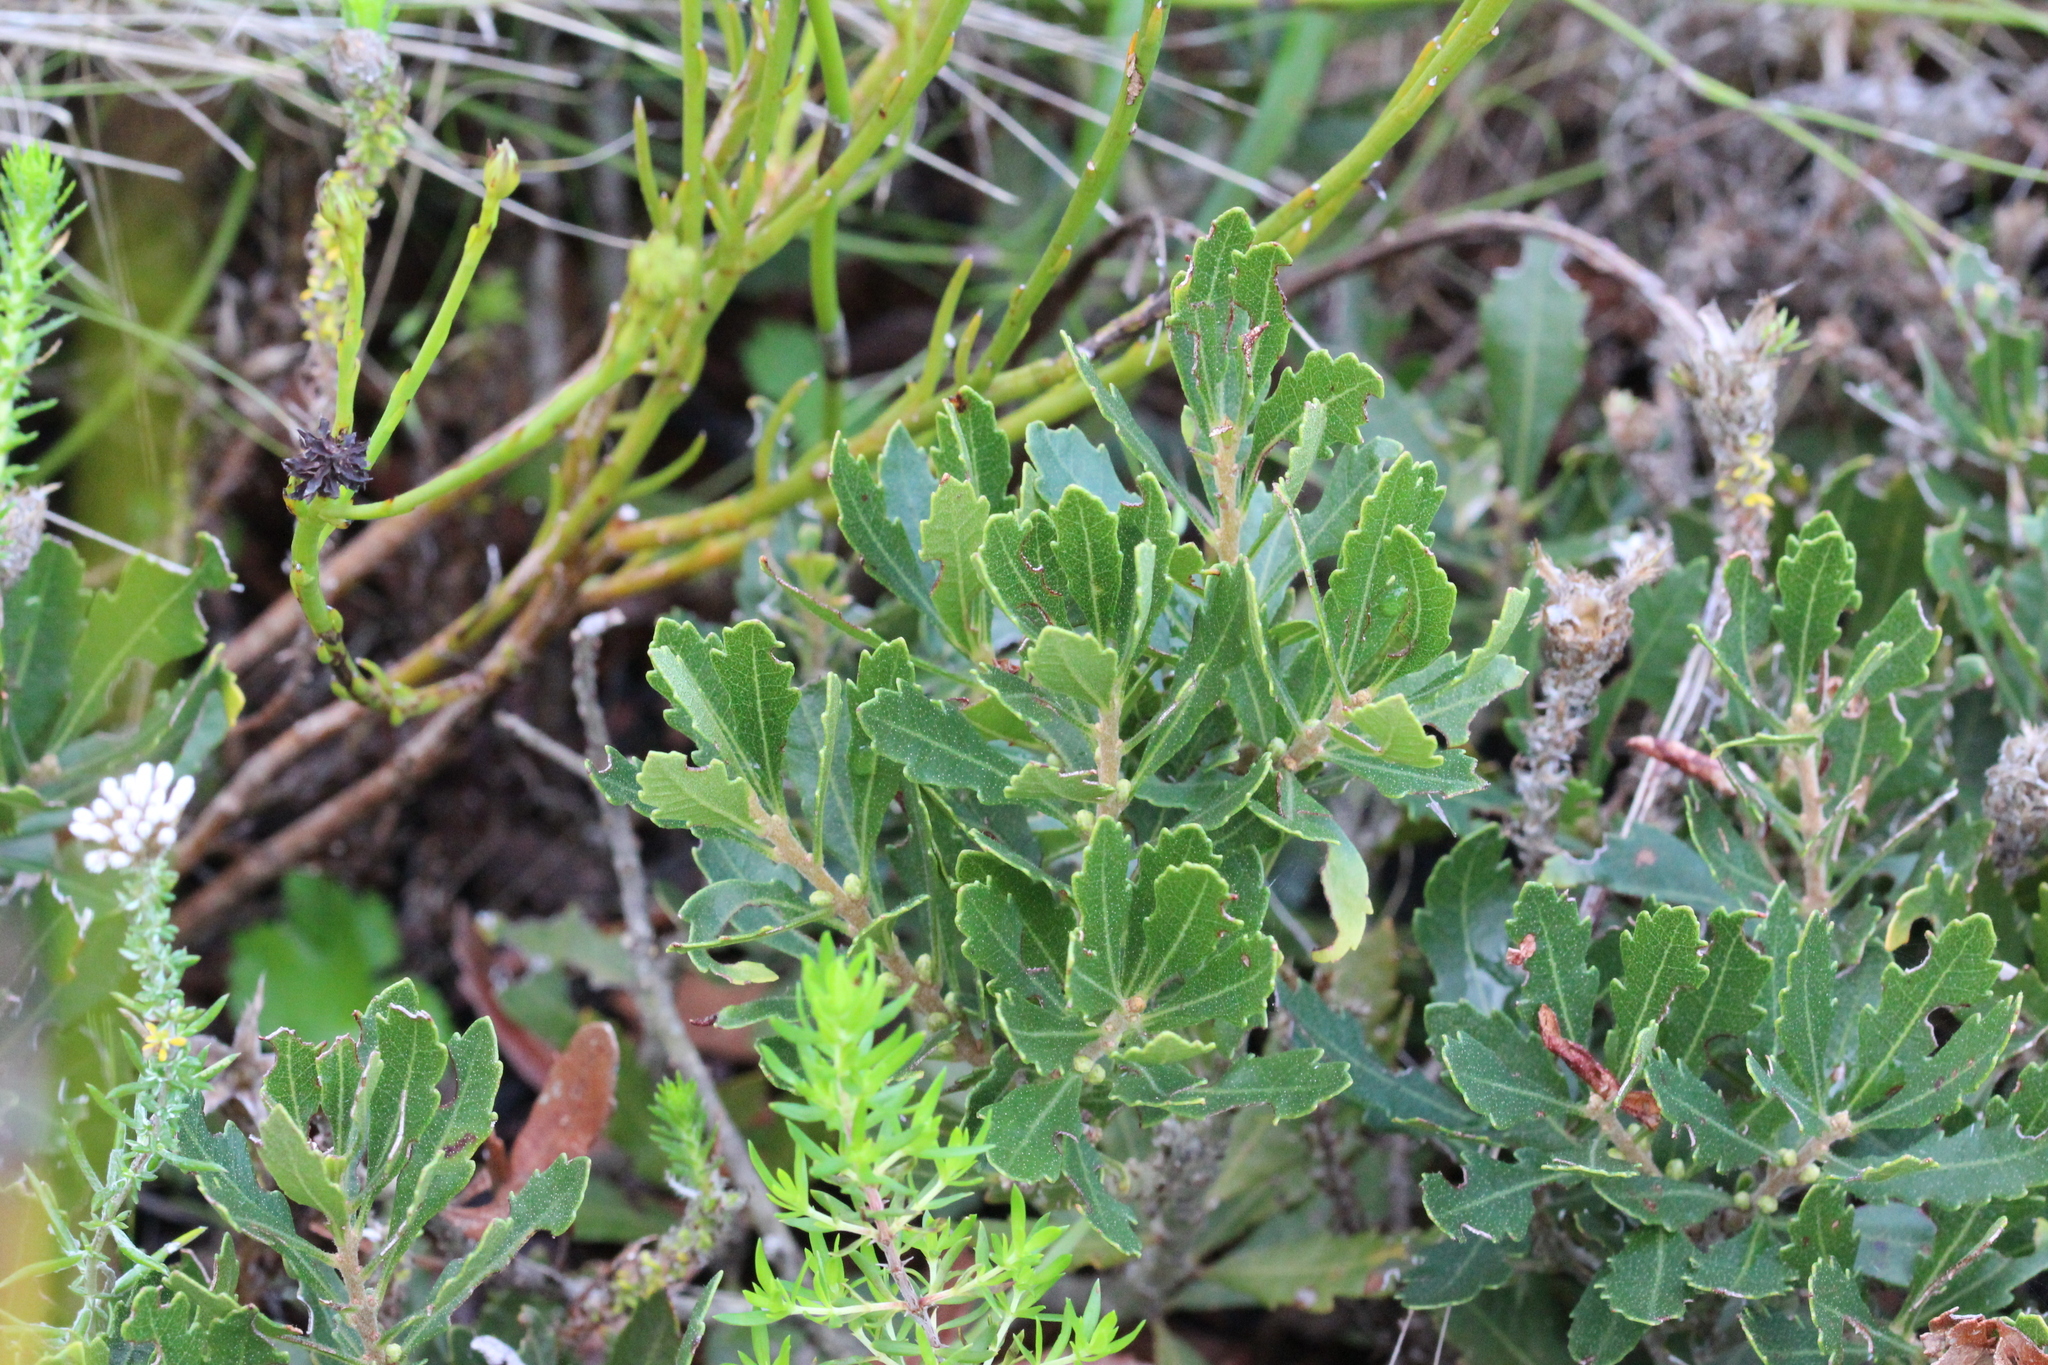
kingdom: Plantae
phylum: Tracheophyta
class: Magnoliopsida
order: Fagales
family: Myricaceae
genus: Morella
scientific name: Morella diversifolia
